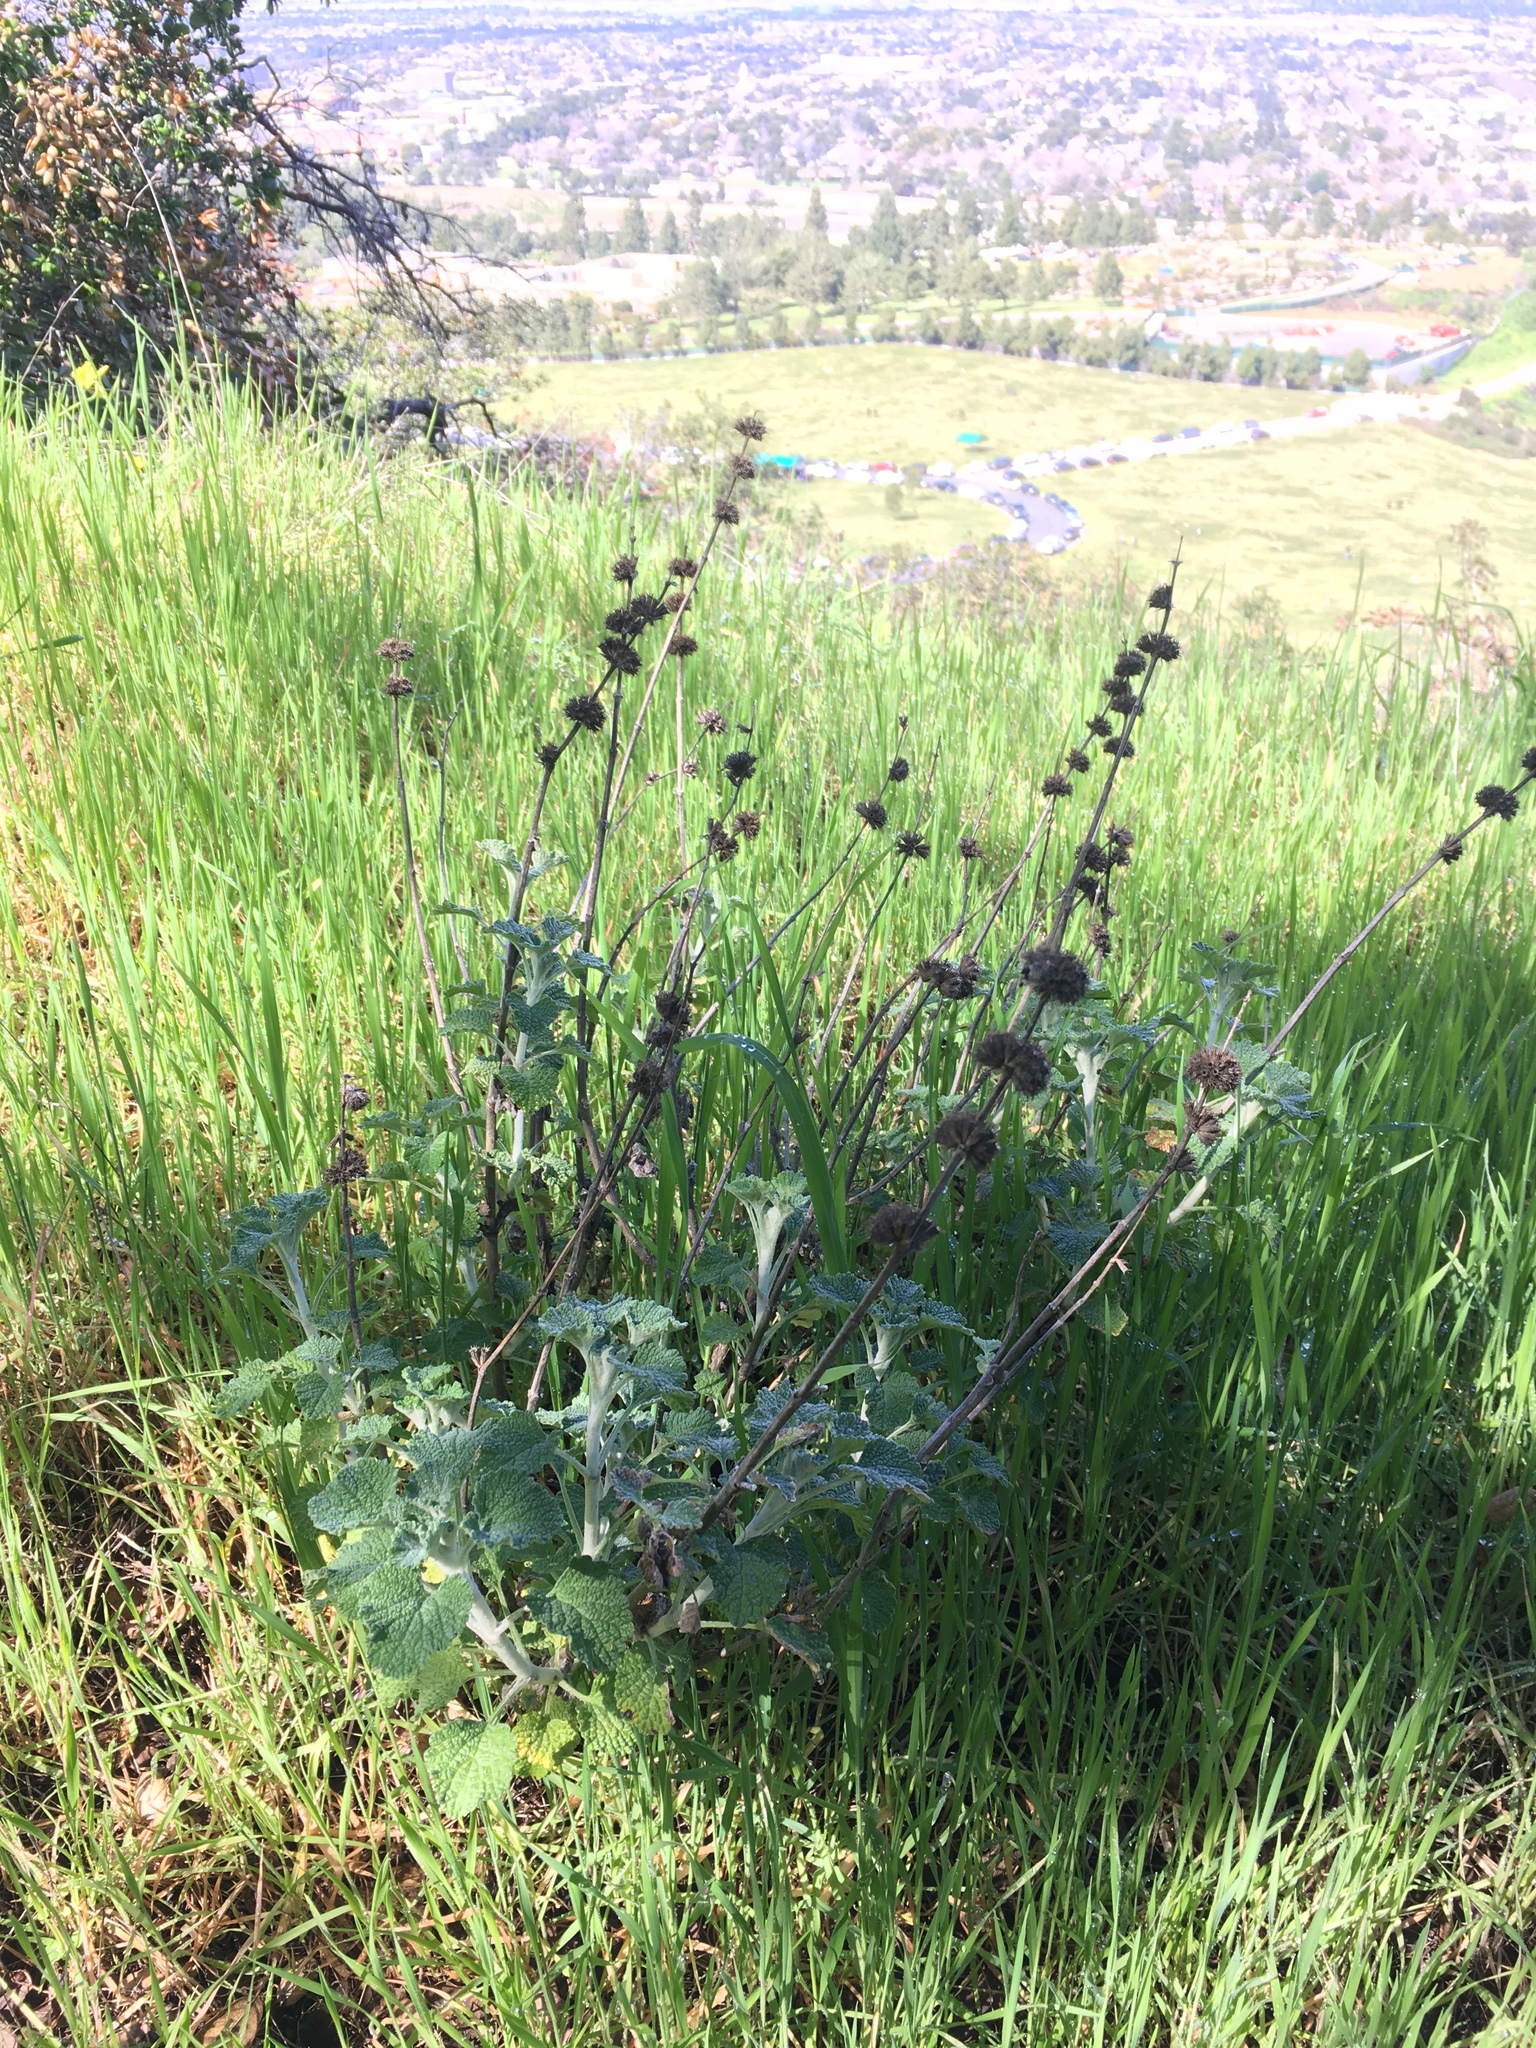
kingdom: Plantae
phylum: Tracheophyta
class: Magnoliopsida
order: Lamiales
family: Lamiaceae
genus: Marrubium
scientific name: Marrubium vulgare
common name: Horehound
